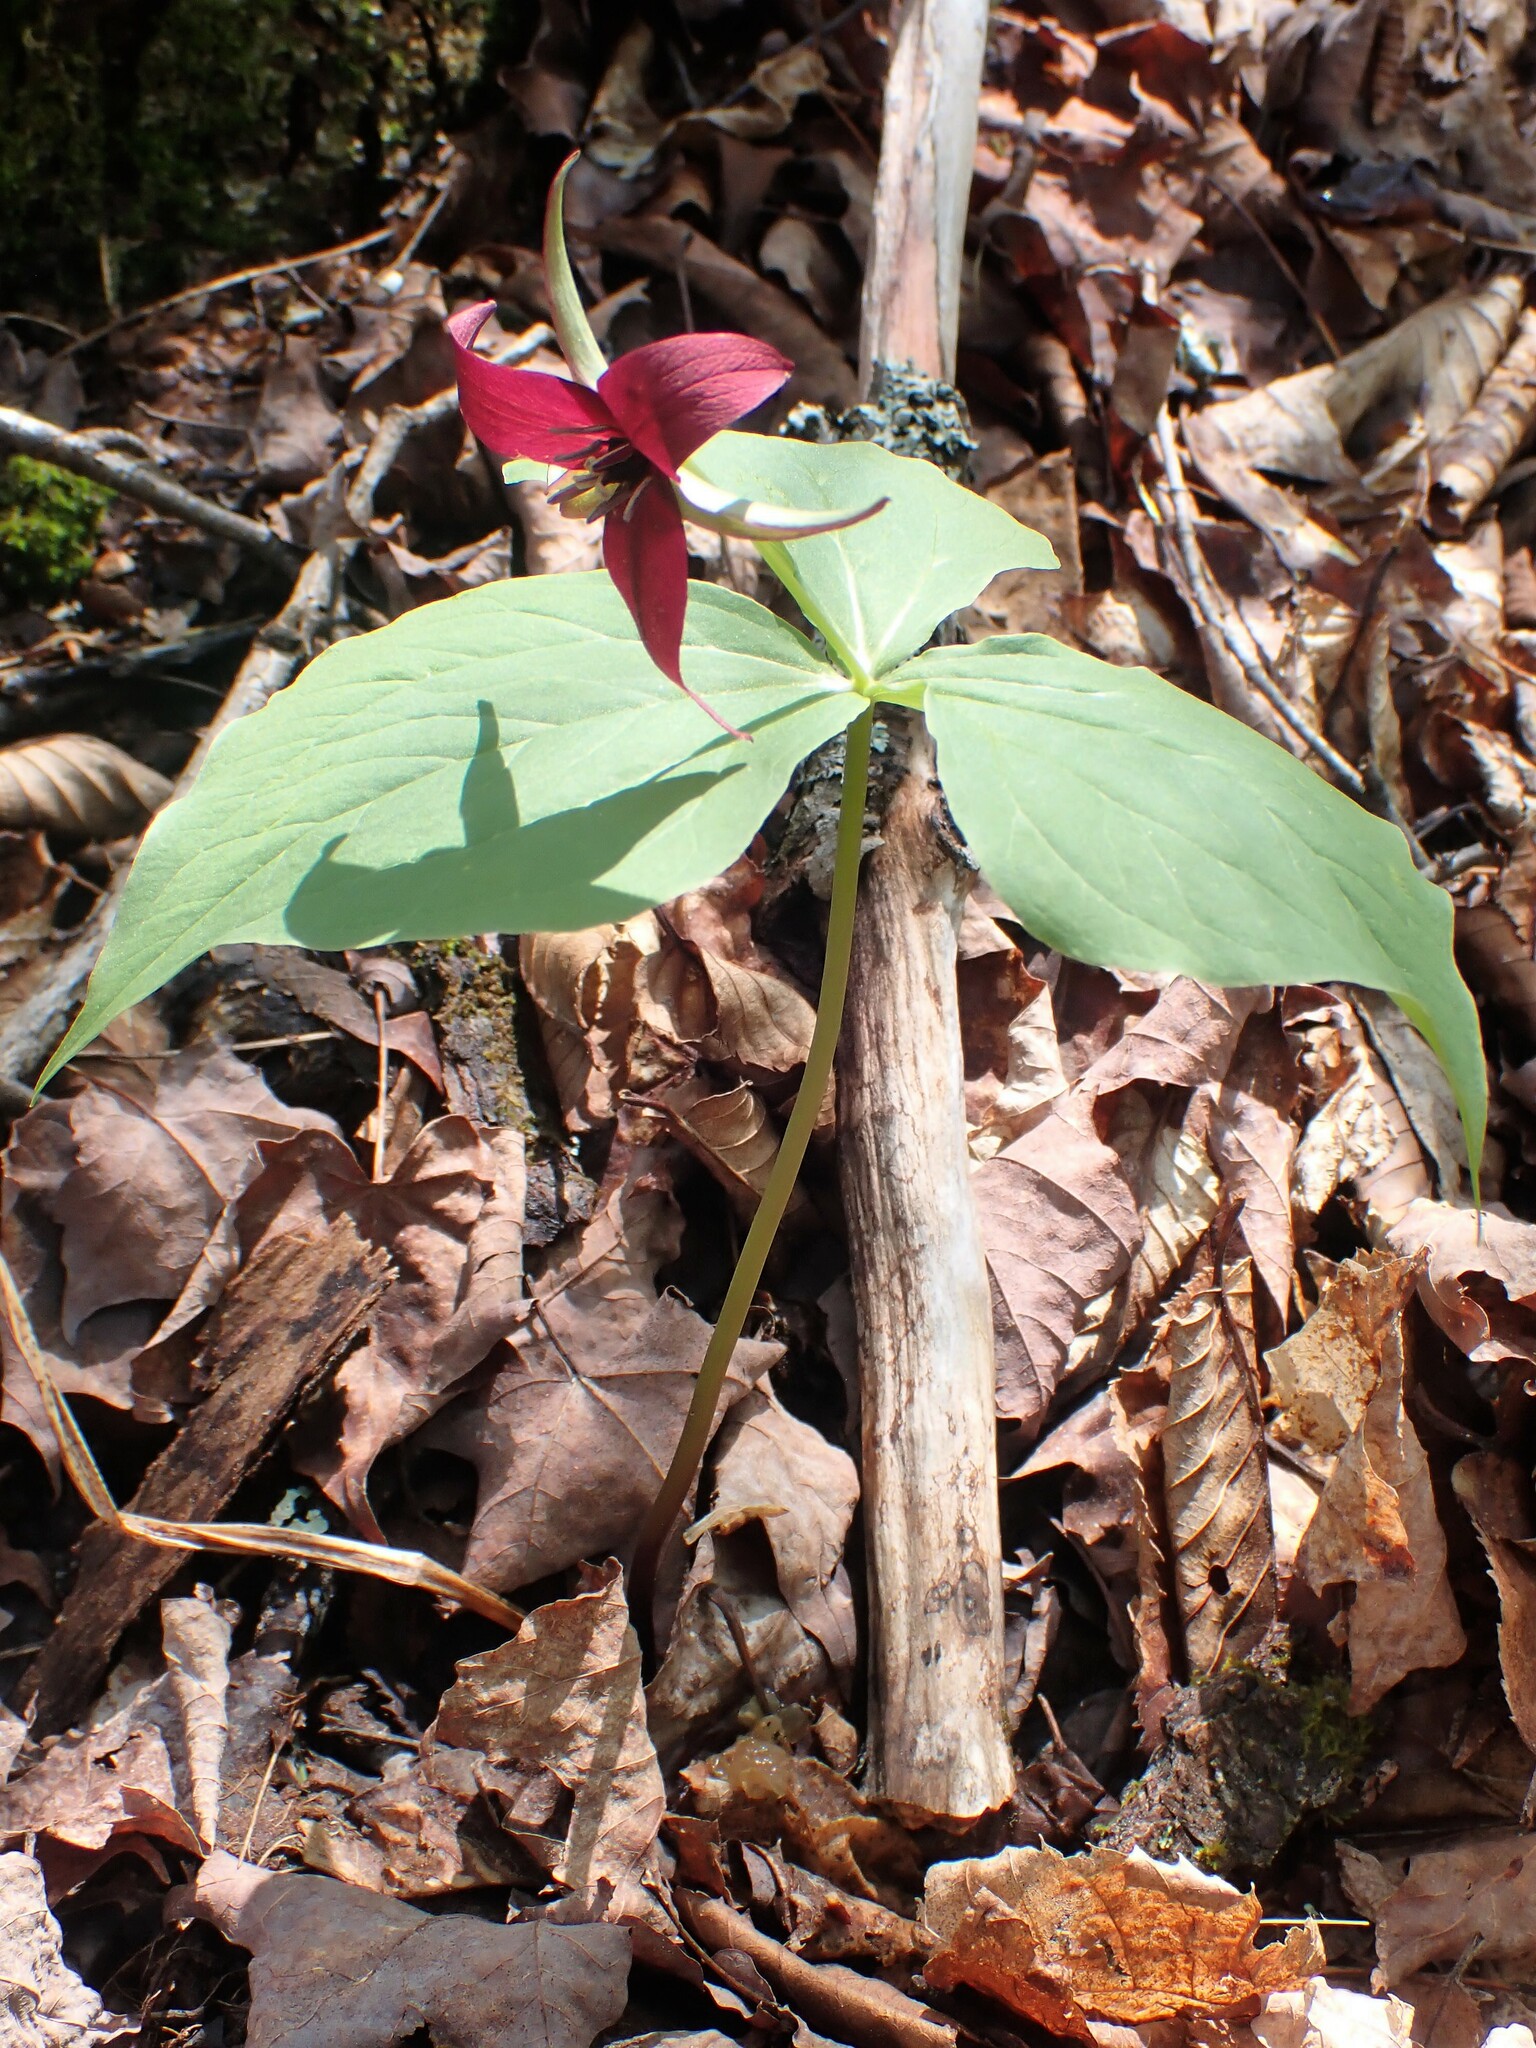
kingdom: Plantae
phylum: Tracheophyta
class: Liliopsida
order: Liliales
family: Melanthiaceae
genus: Trillium
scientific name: Trillium erectum
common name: Purple trillium
